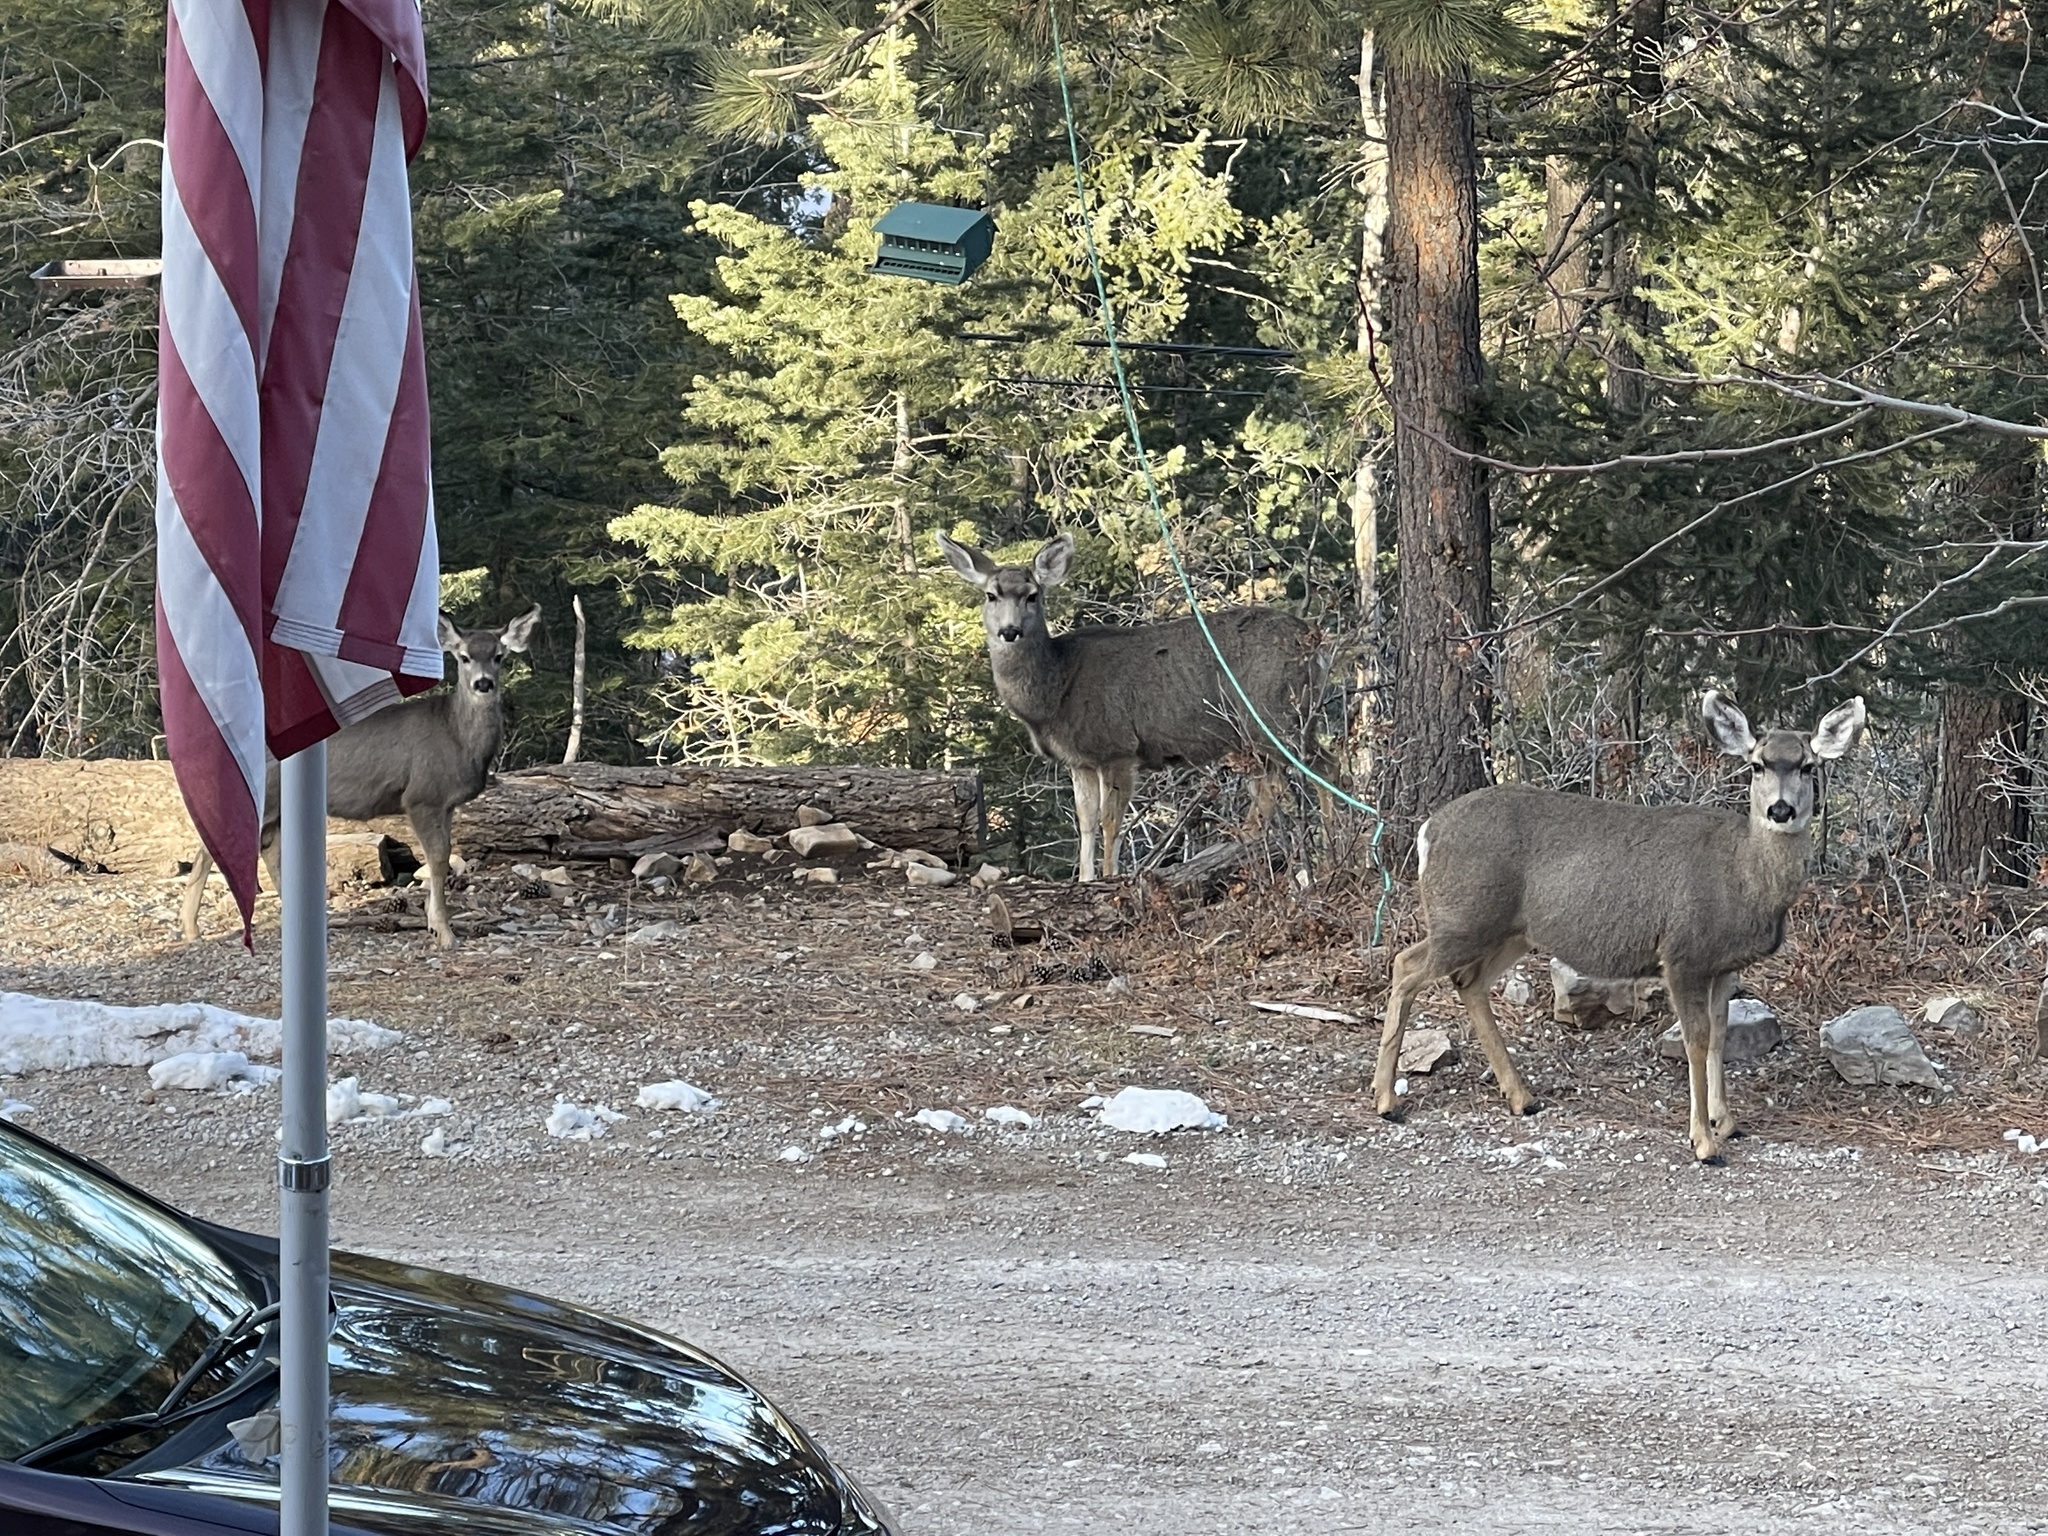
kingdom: Animalia
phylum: Chordata
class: Mammalia
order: Artiodactyla
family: Cervidae
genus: Odocoileus
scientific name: Odocoileus hemionus
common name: Mule deer
